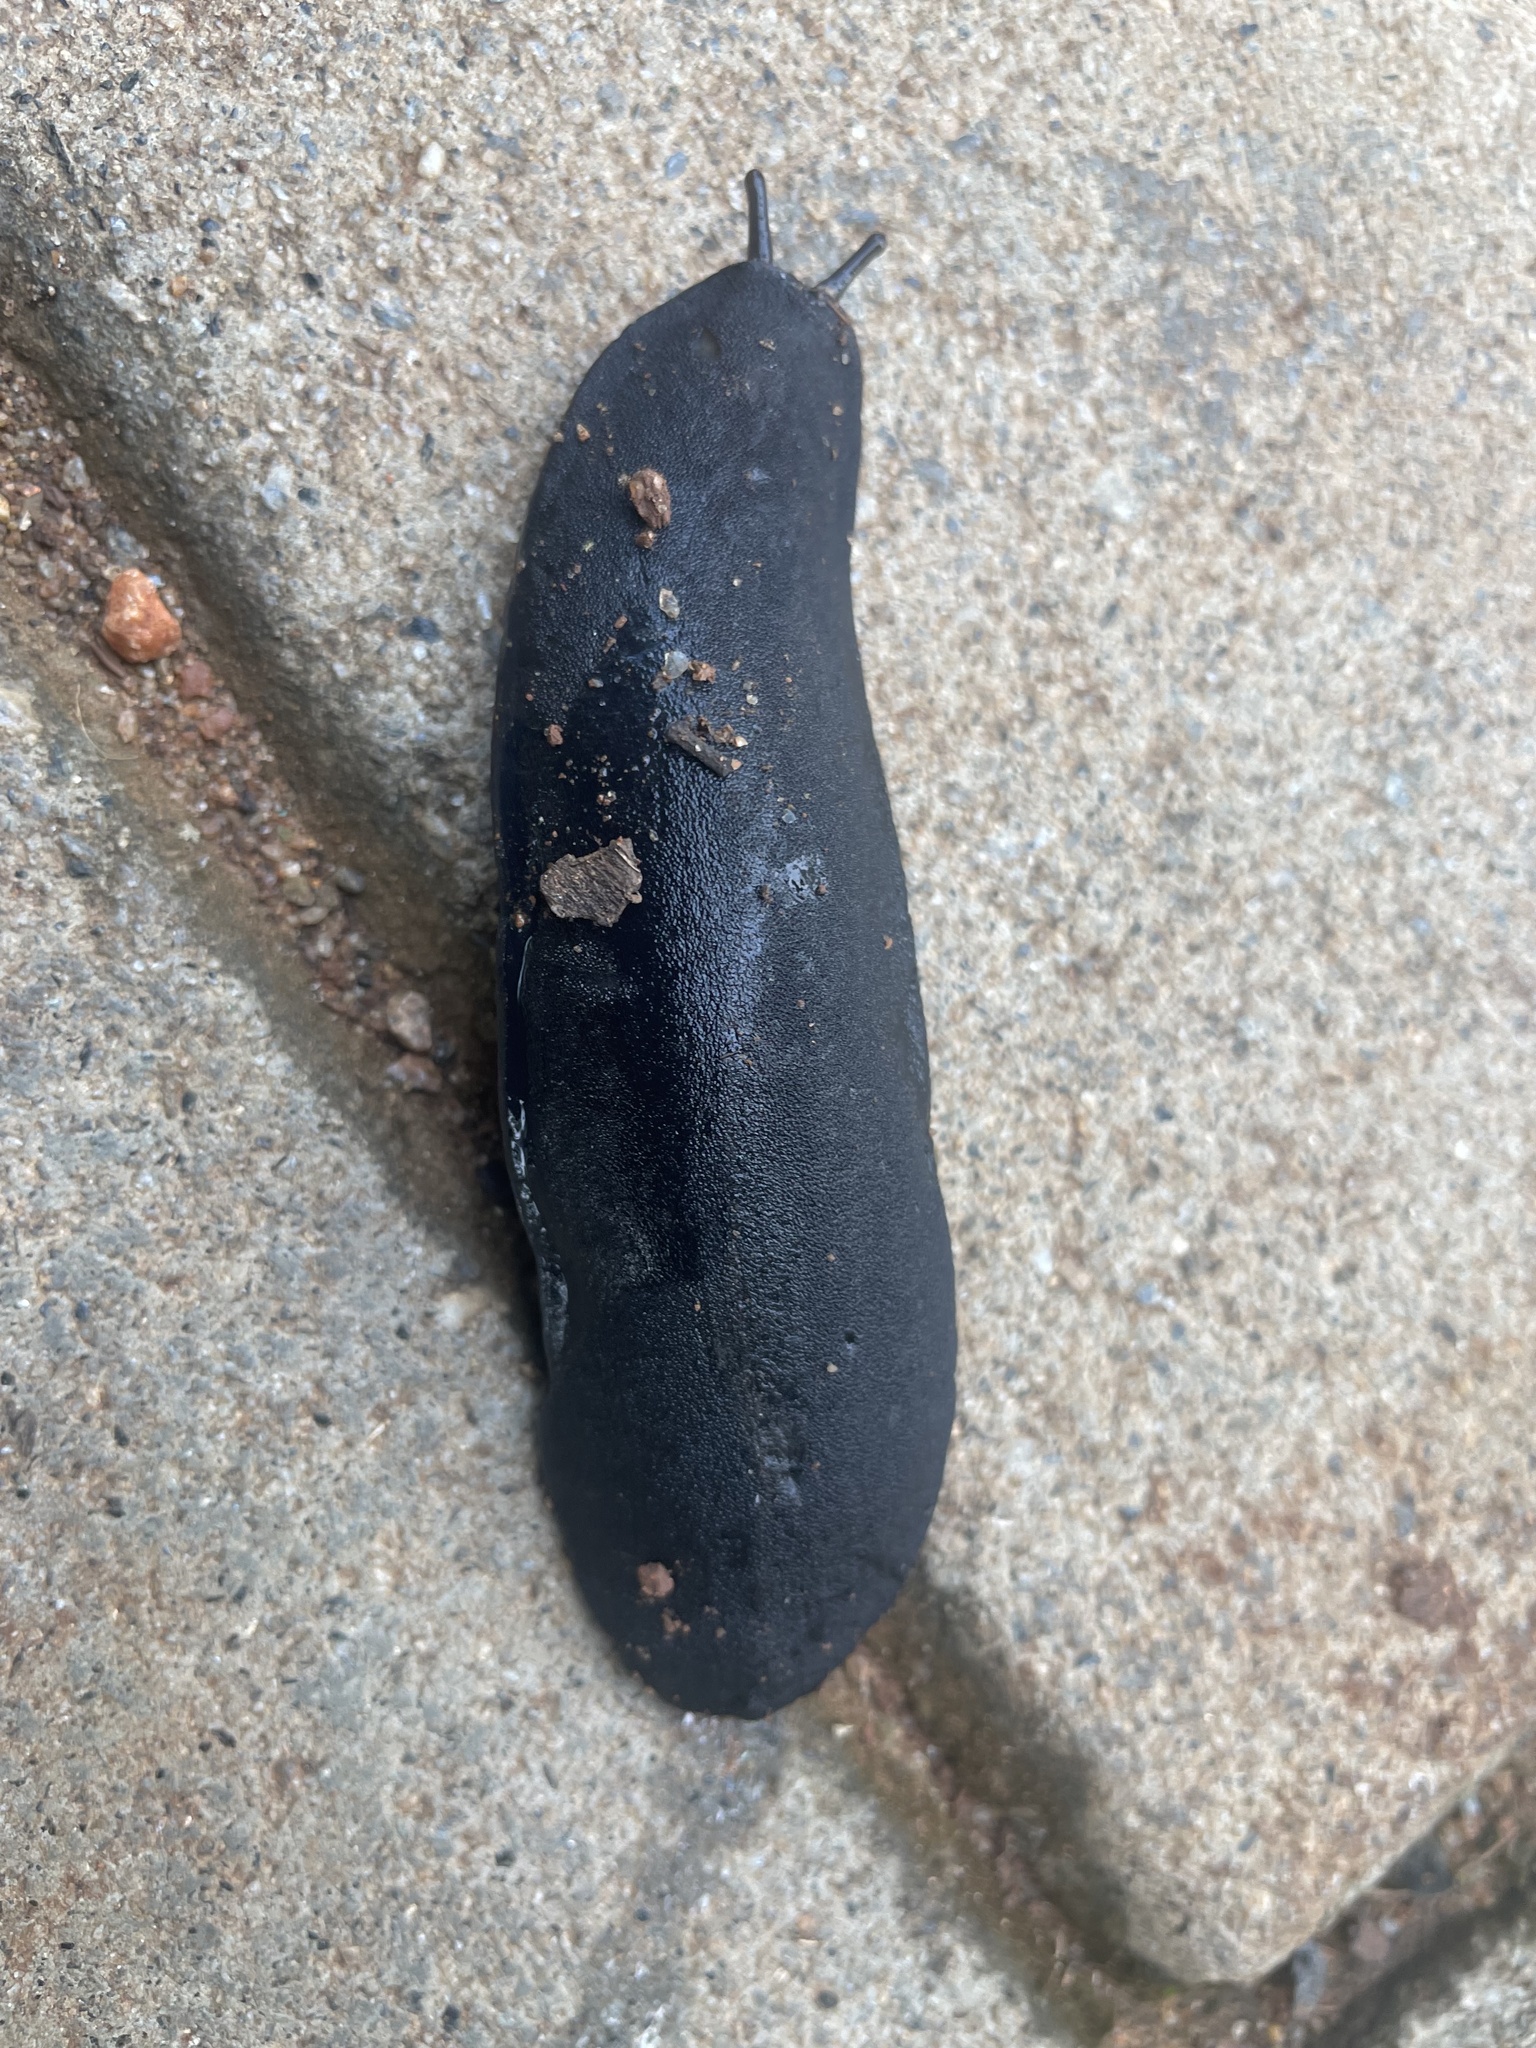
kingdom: Animalia
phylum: Mollusca
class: Gastropoda
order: Systellommatophora
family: Veronicellidae
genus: Laevicaulis
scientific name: Laevicaulis alte
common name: Tropical leatherleaf
